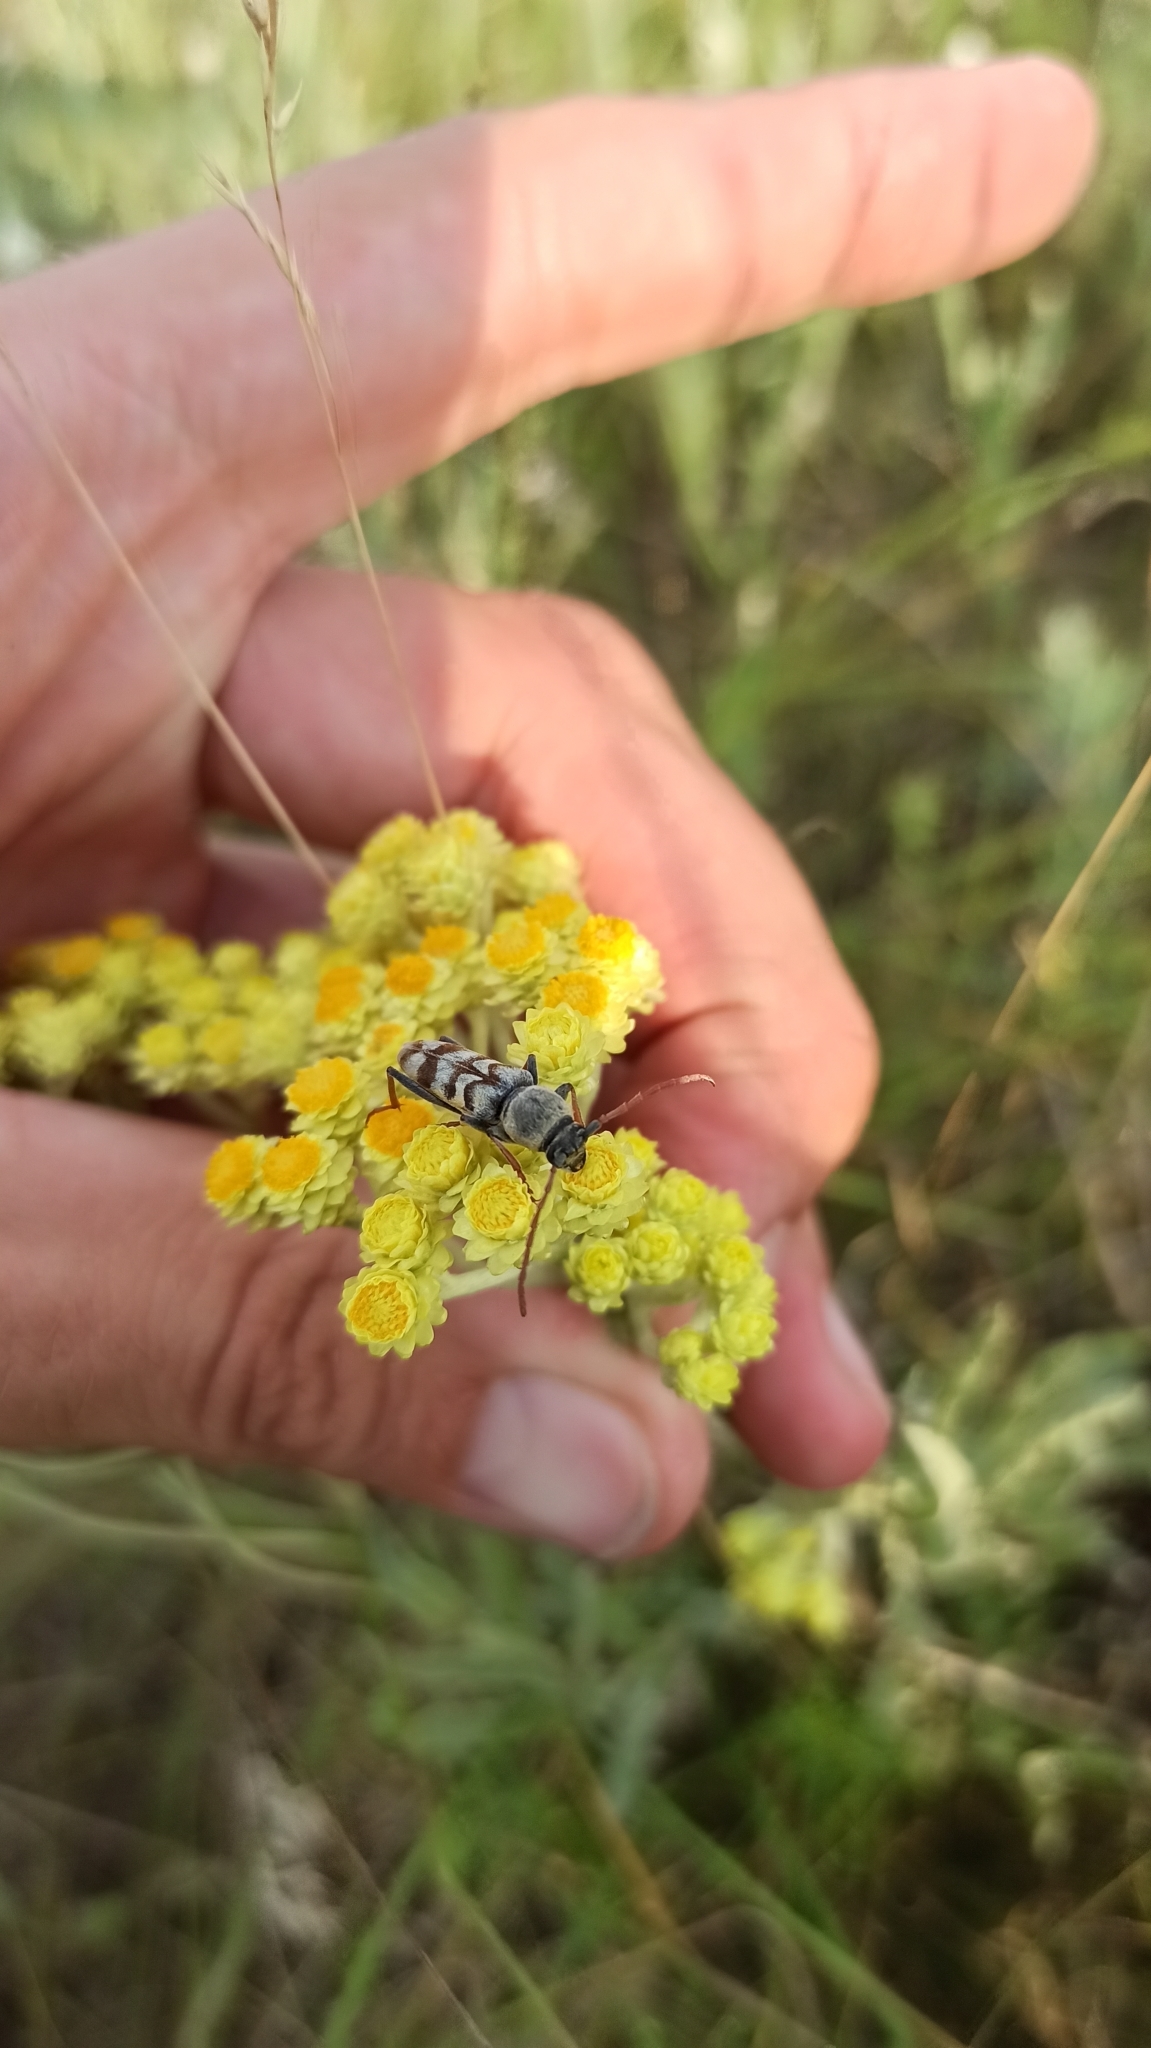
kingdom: Animalia
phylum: Arthropoda
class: Insecta
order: Coleoptera
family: Cerambycidae
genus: Plagionotus
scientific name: Plagionotus floralis
